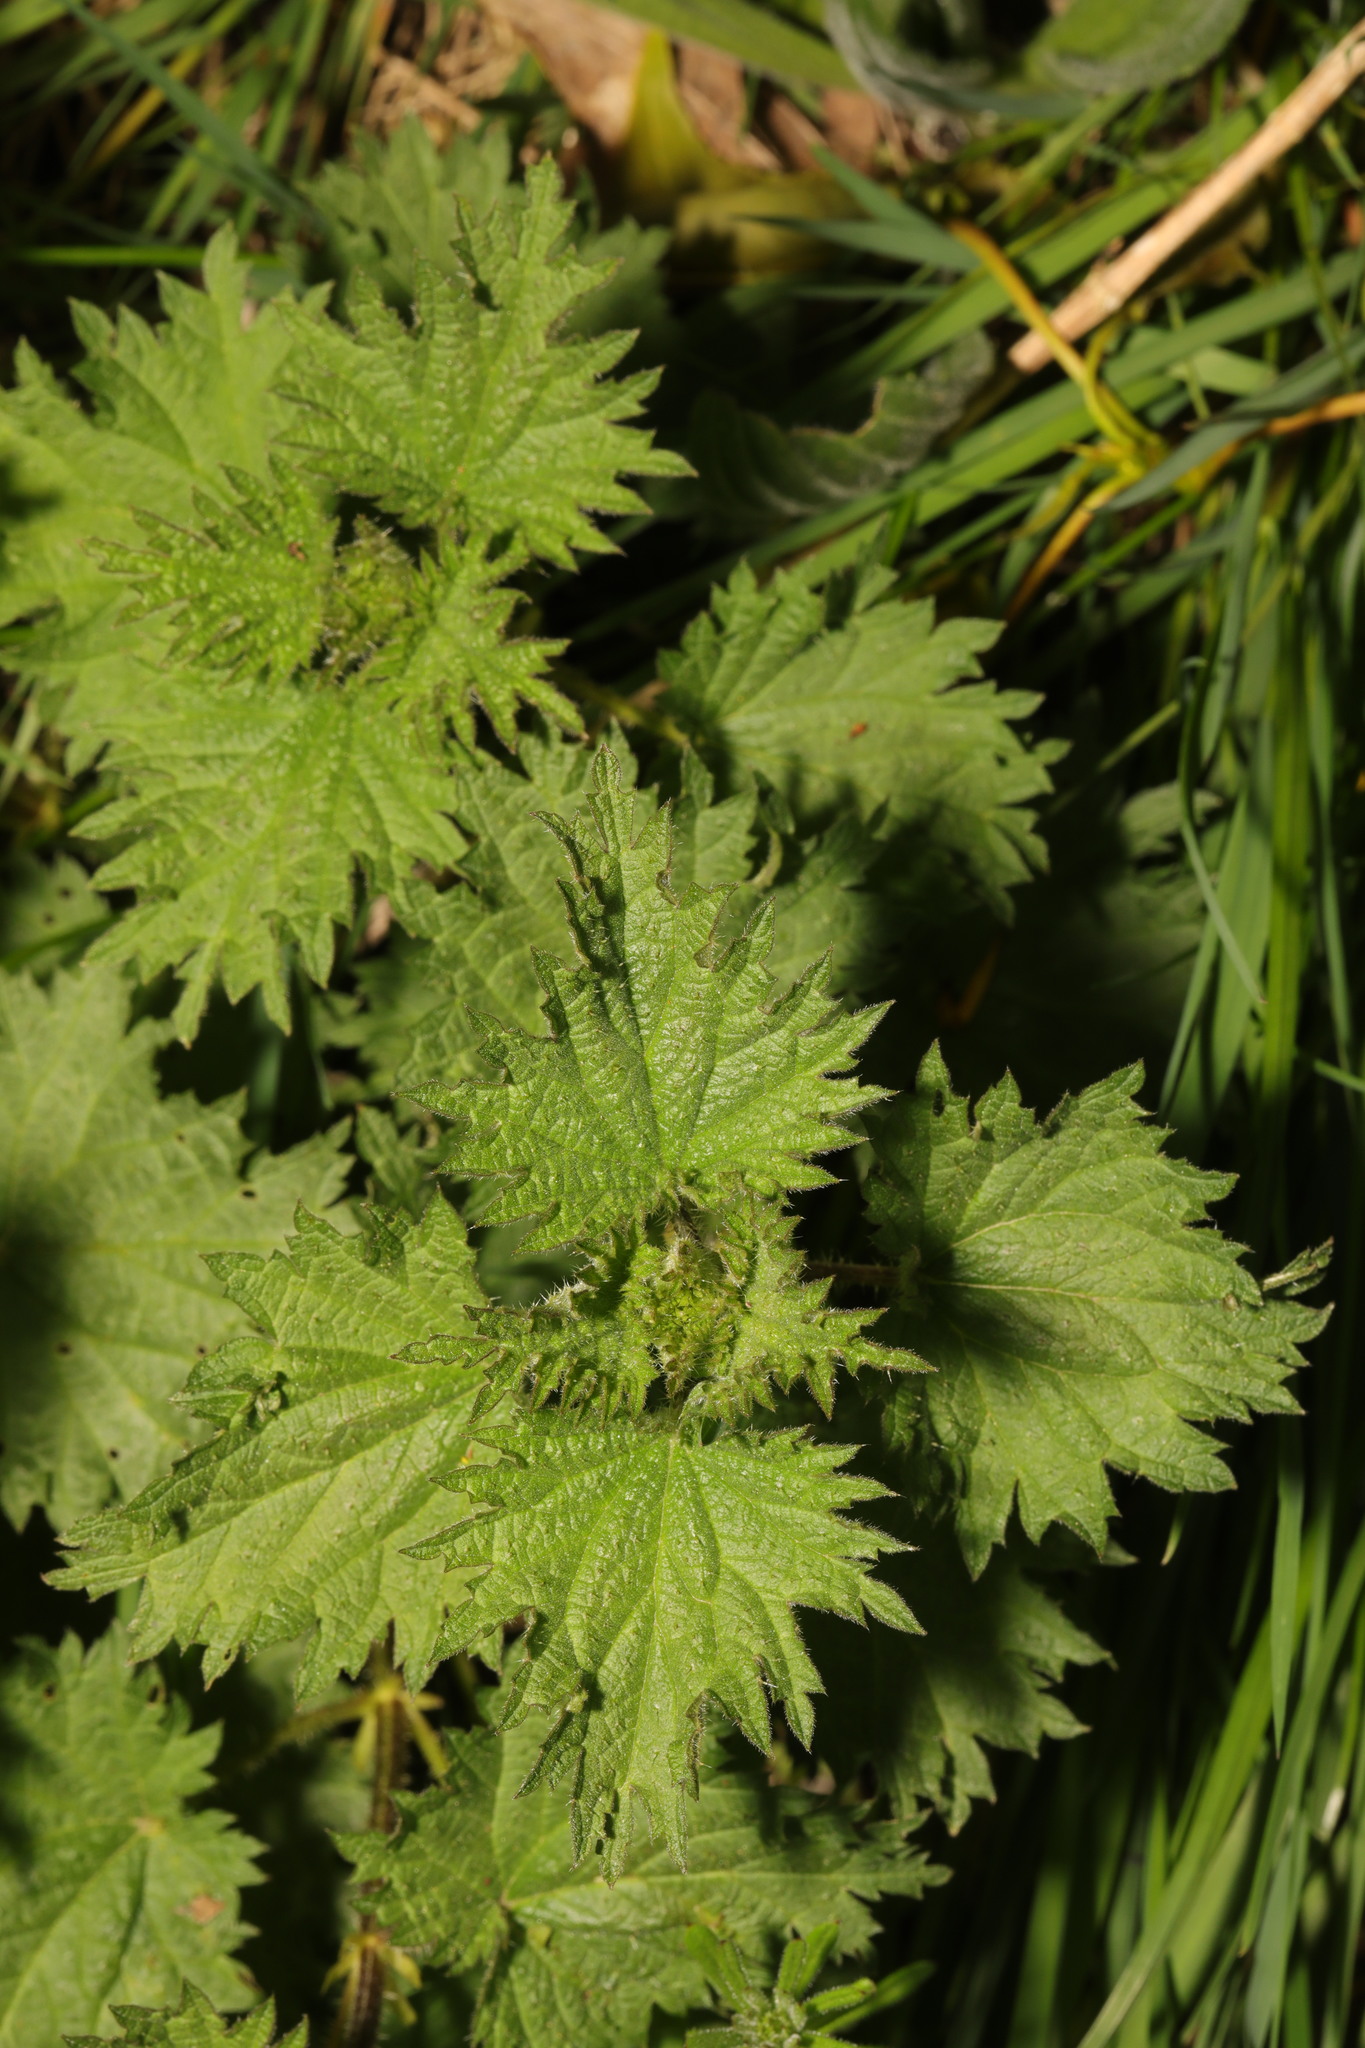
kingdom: Plantae
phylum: Tracheophyta
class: Magnoliopsida
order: Rosales
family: Urticaceae
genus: Urtica
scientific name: Urtica dioica
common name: Common nettle
